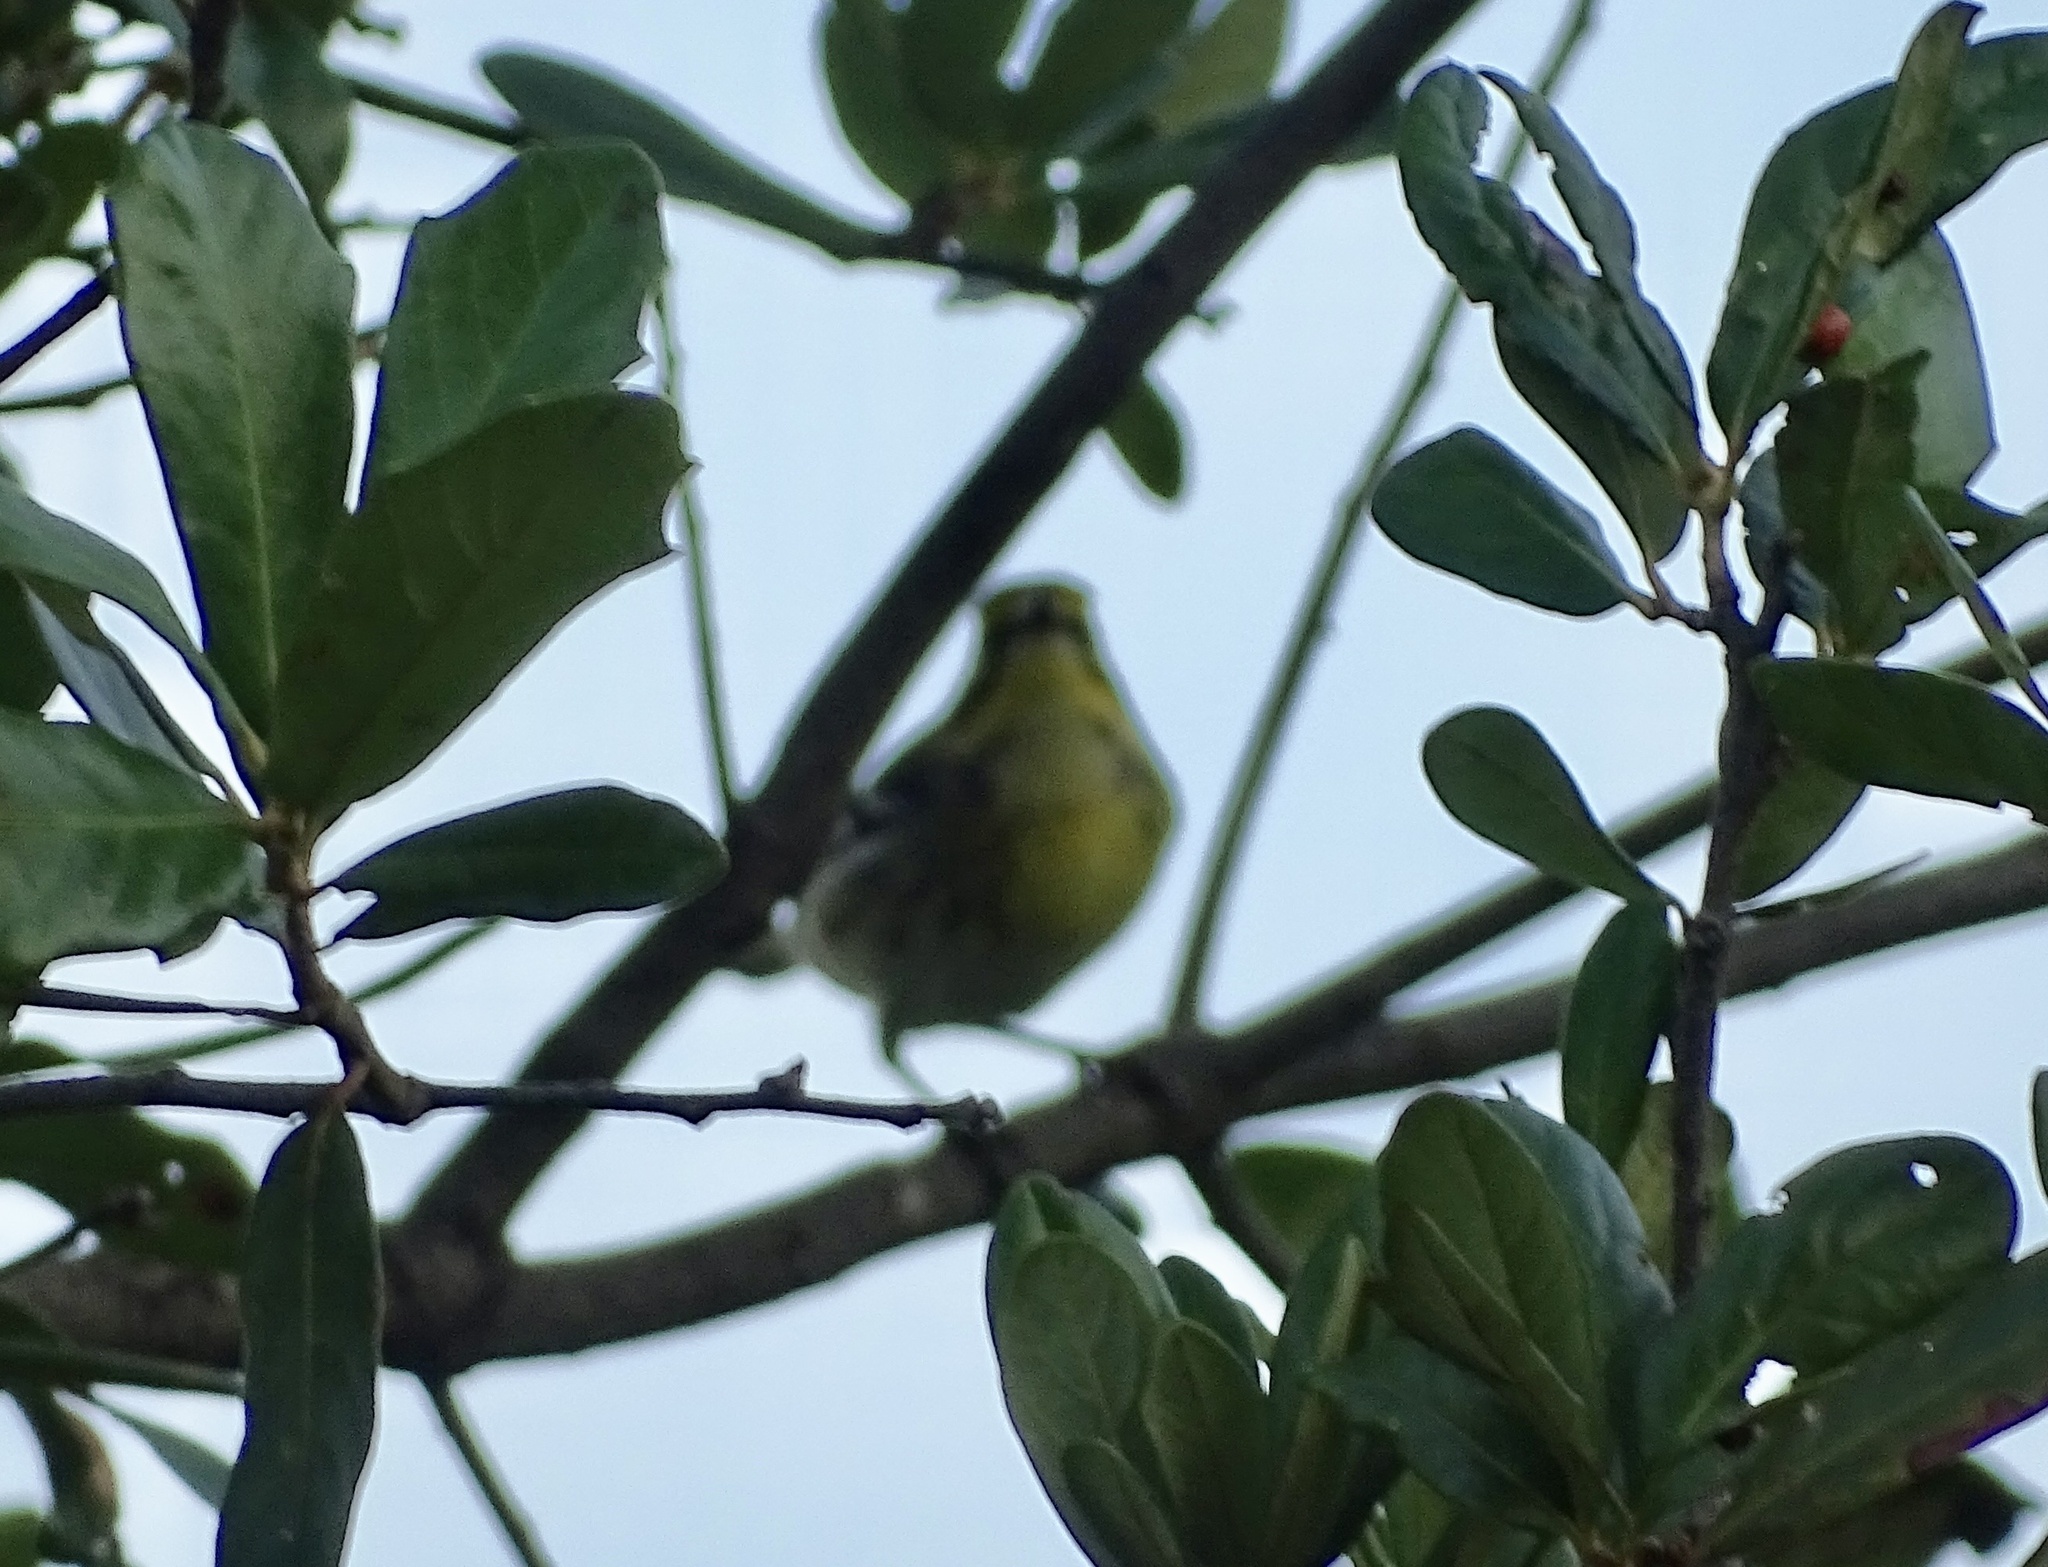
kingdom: Animalia
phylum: Chordata
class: Aves
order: Passeriformes
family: Parulidae
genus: Setophaga
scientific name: Setophaga townsendi
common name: Townsend's warbler
